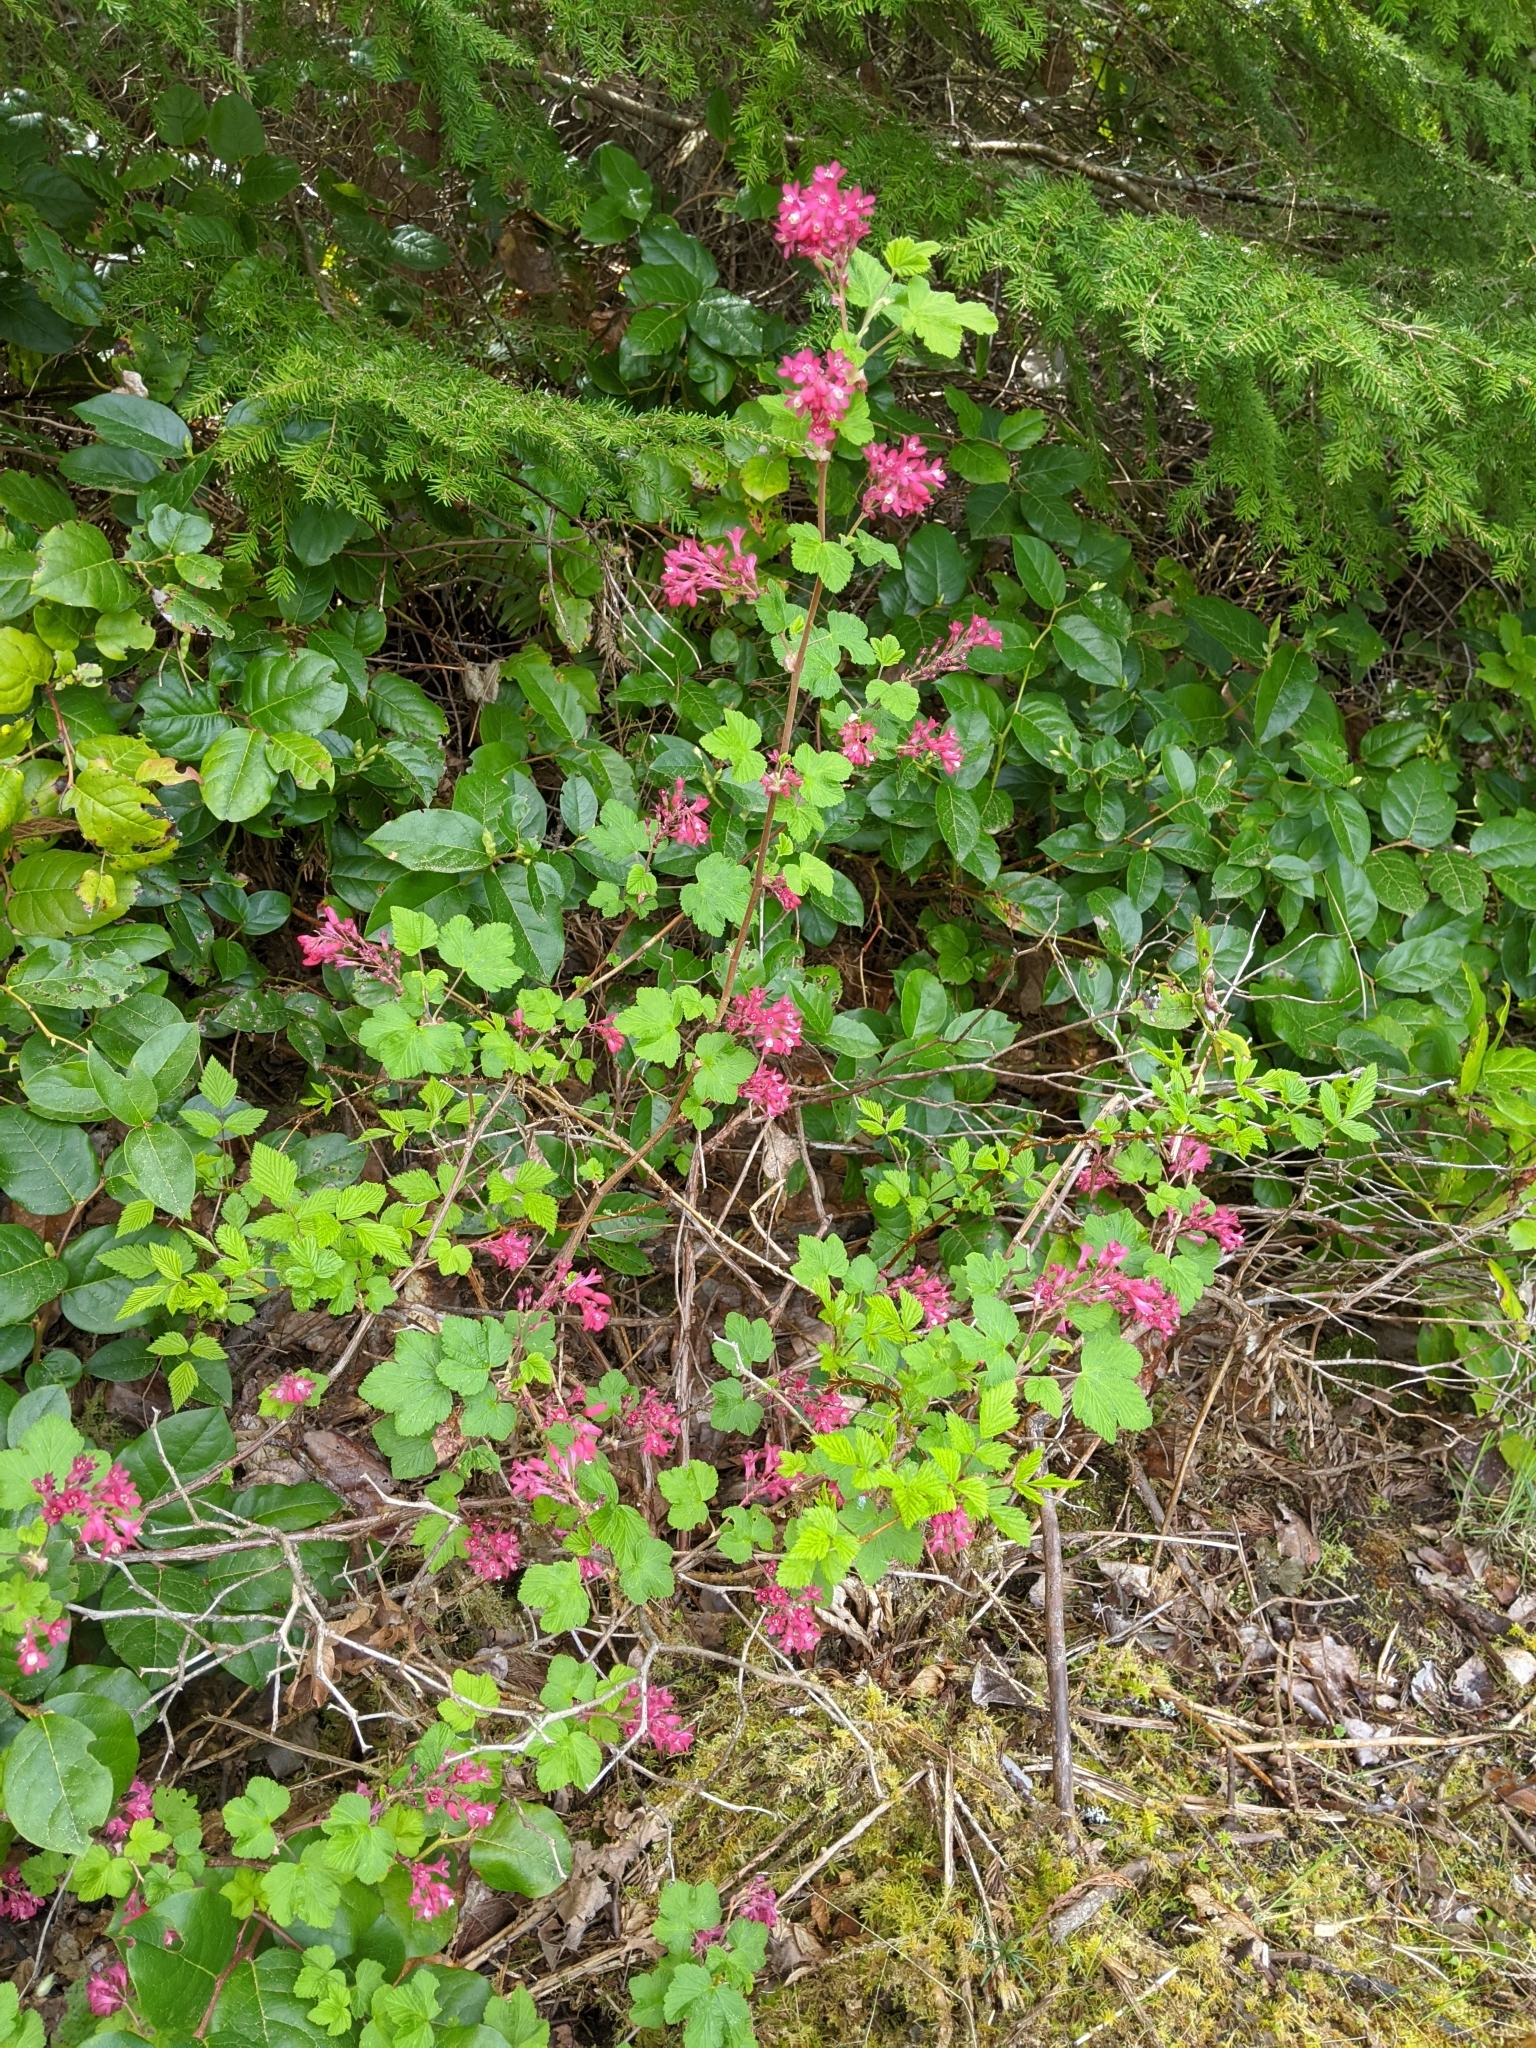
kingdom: Plantae
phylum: Tracheophyta
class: Magnoliopsida
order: Saxifragales
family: Grossulariaceae
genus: Ribes
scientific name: Ribes sanguineum
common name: Flowering currant
